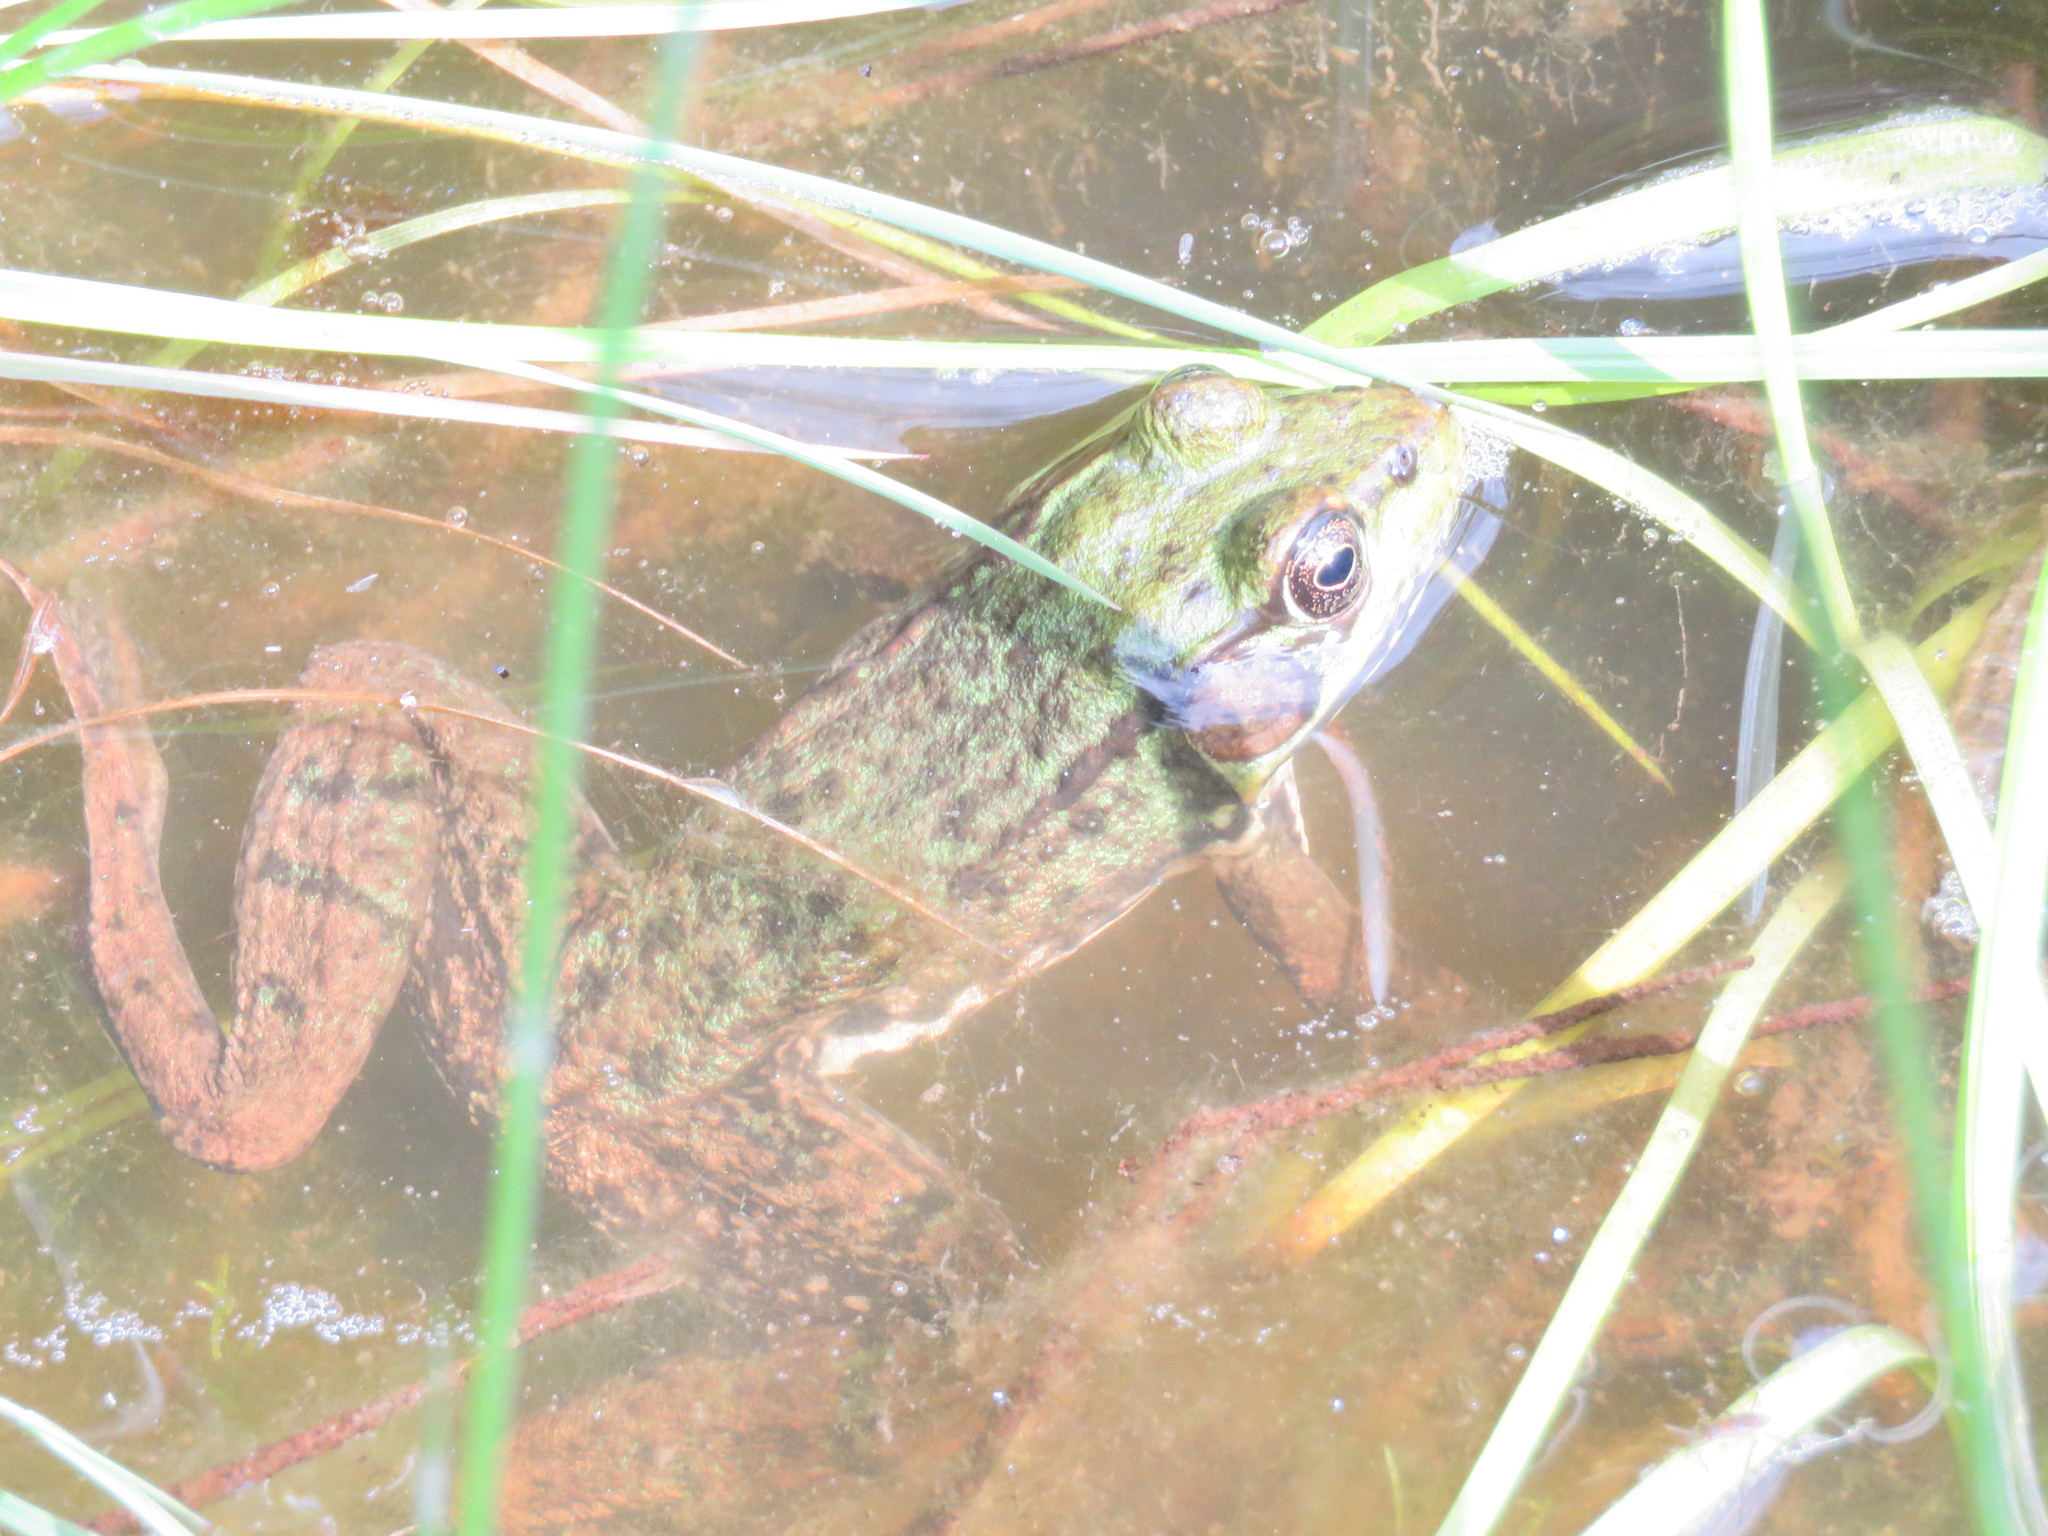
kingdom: Animalia
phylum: Chordata
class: Amphibia
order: Anura
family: Ranidae
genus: Lithobates
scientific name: Lithobates clamitans
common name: Green frog
